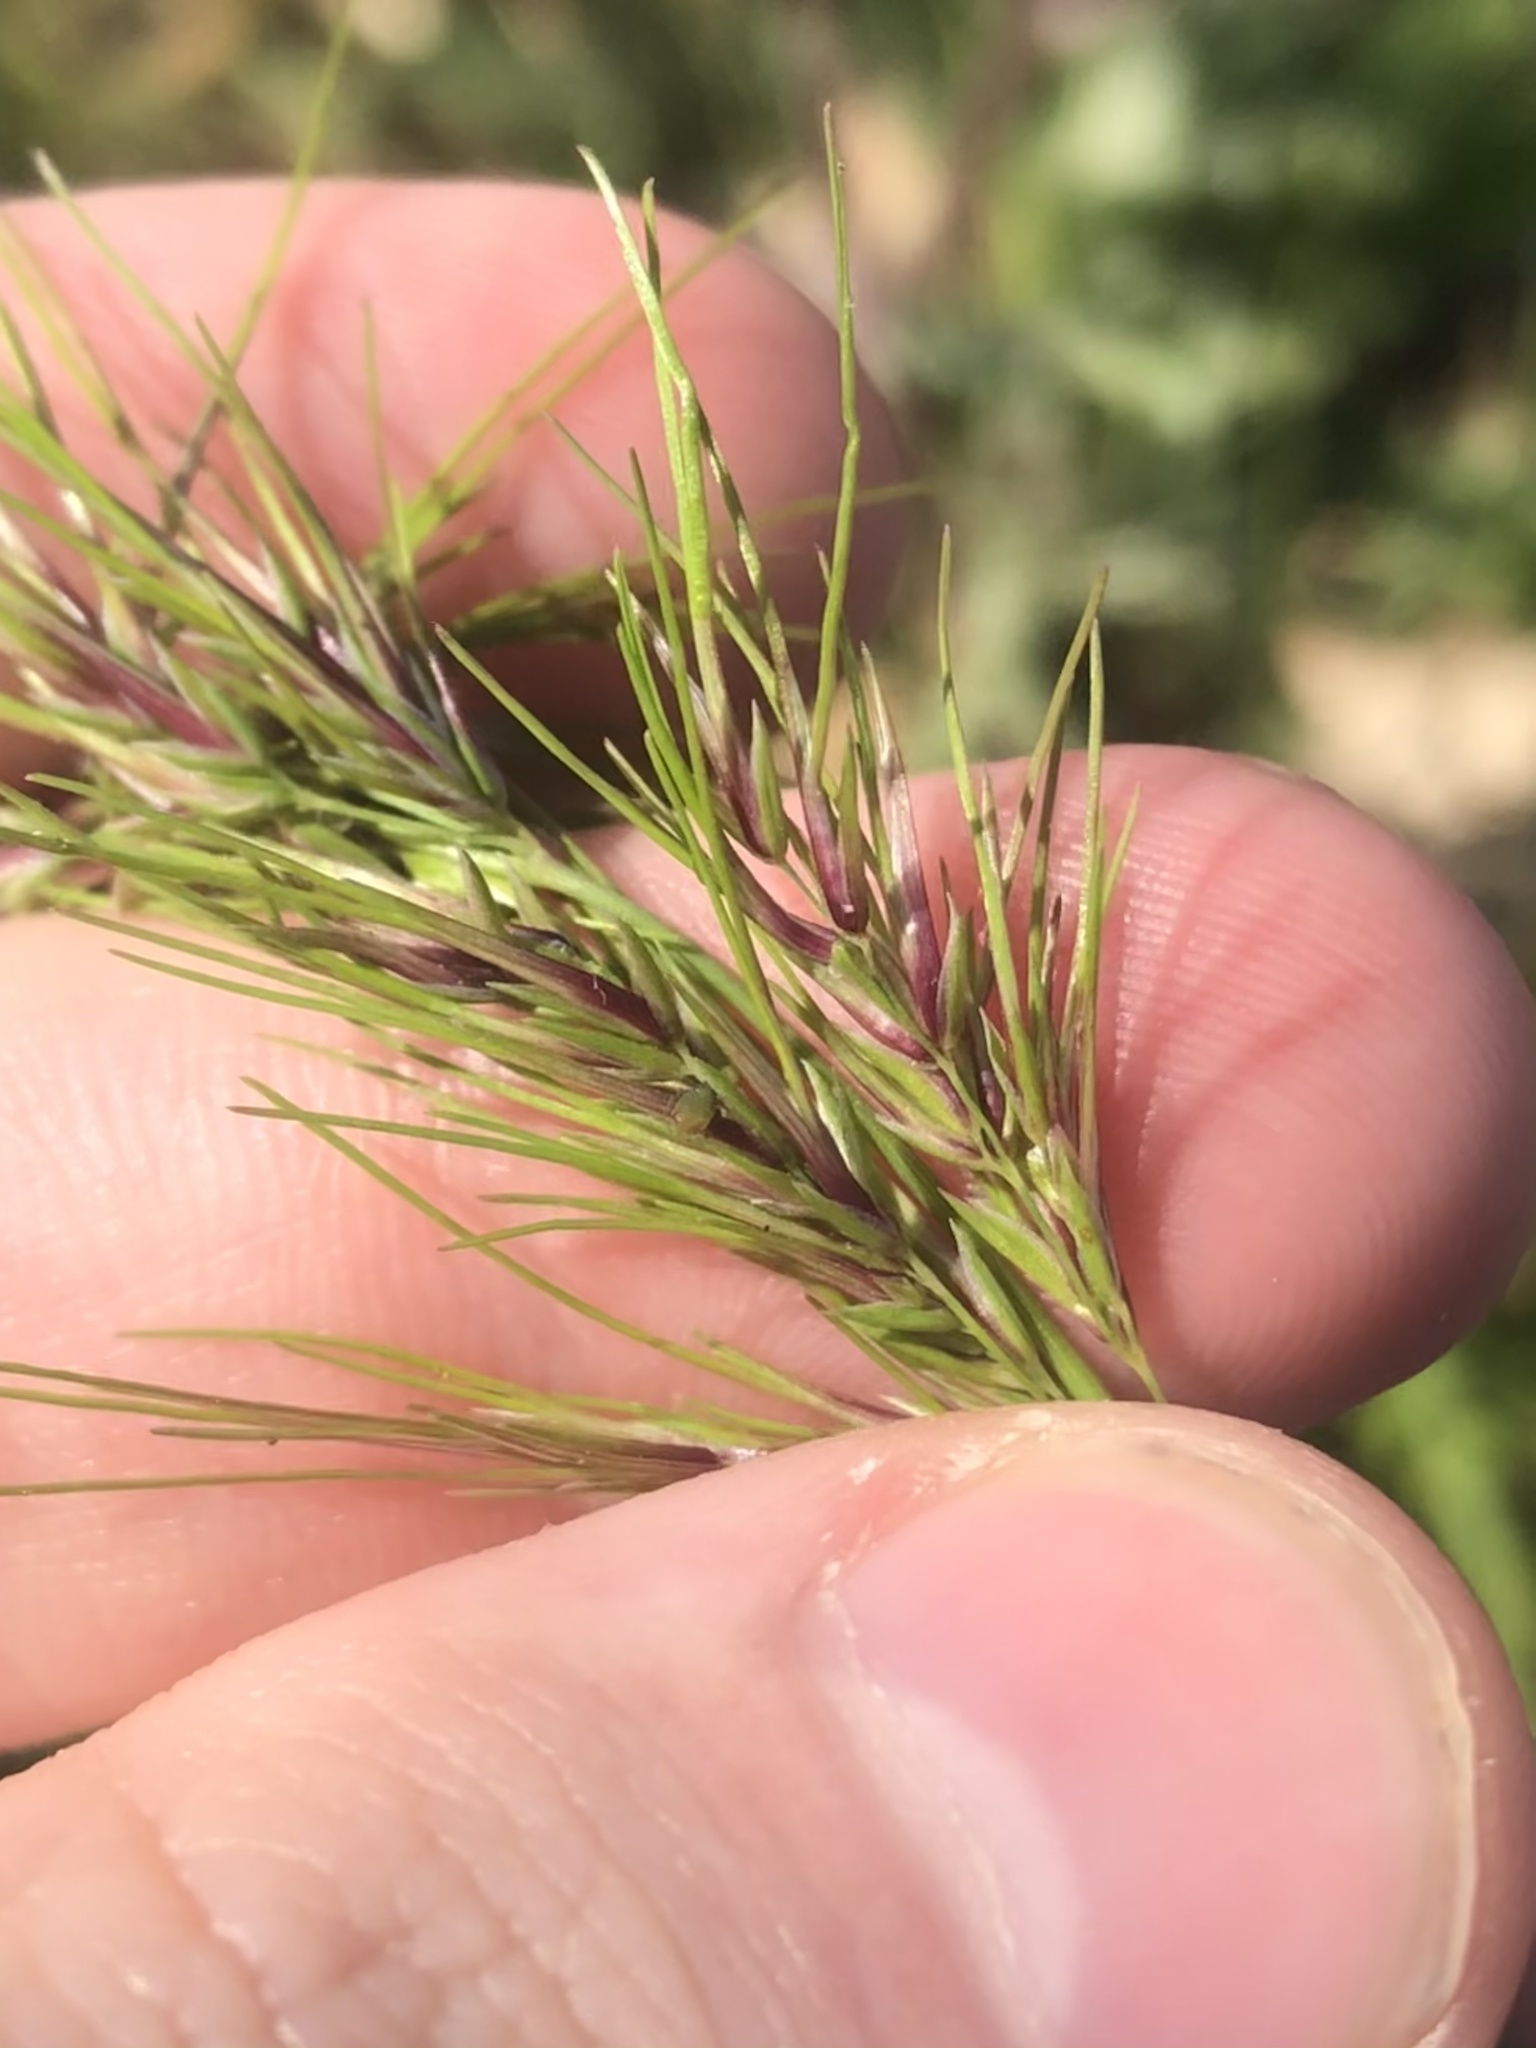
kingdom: Plantae
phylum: Tracheophyta
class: Liliopsida
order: Poales
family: Poaceae
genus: Poa
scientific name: Poa bulbosa
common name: Bulbous bluegrass
